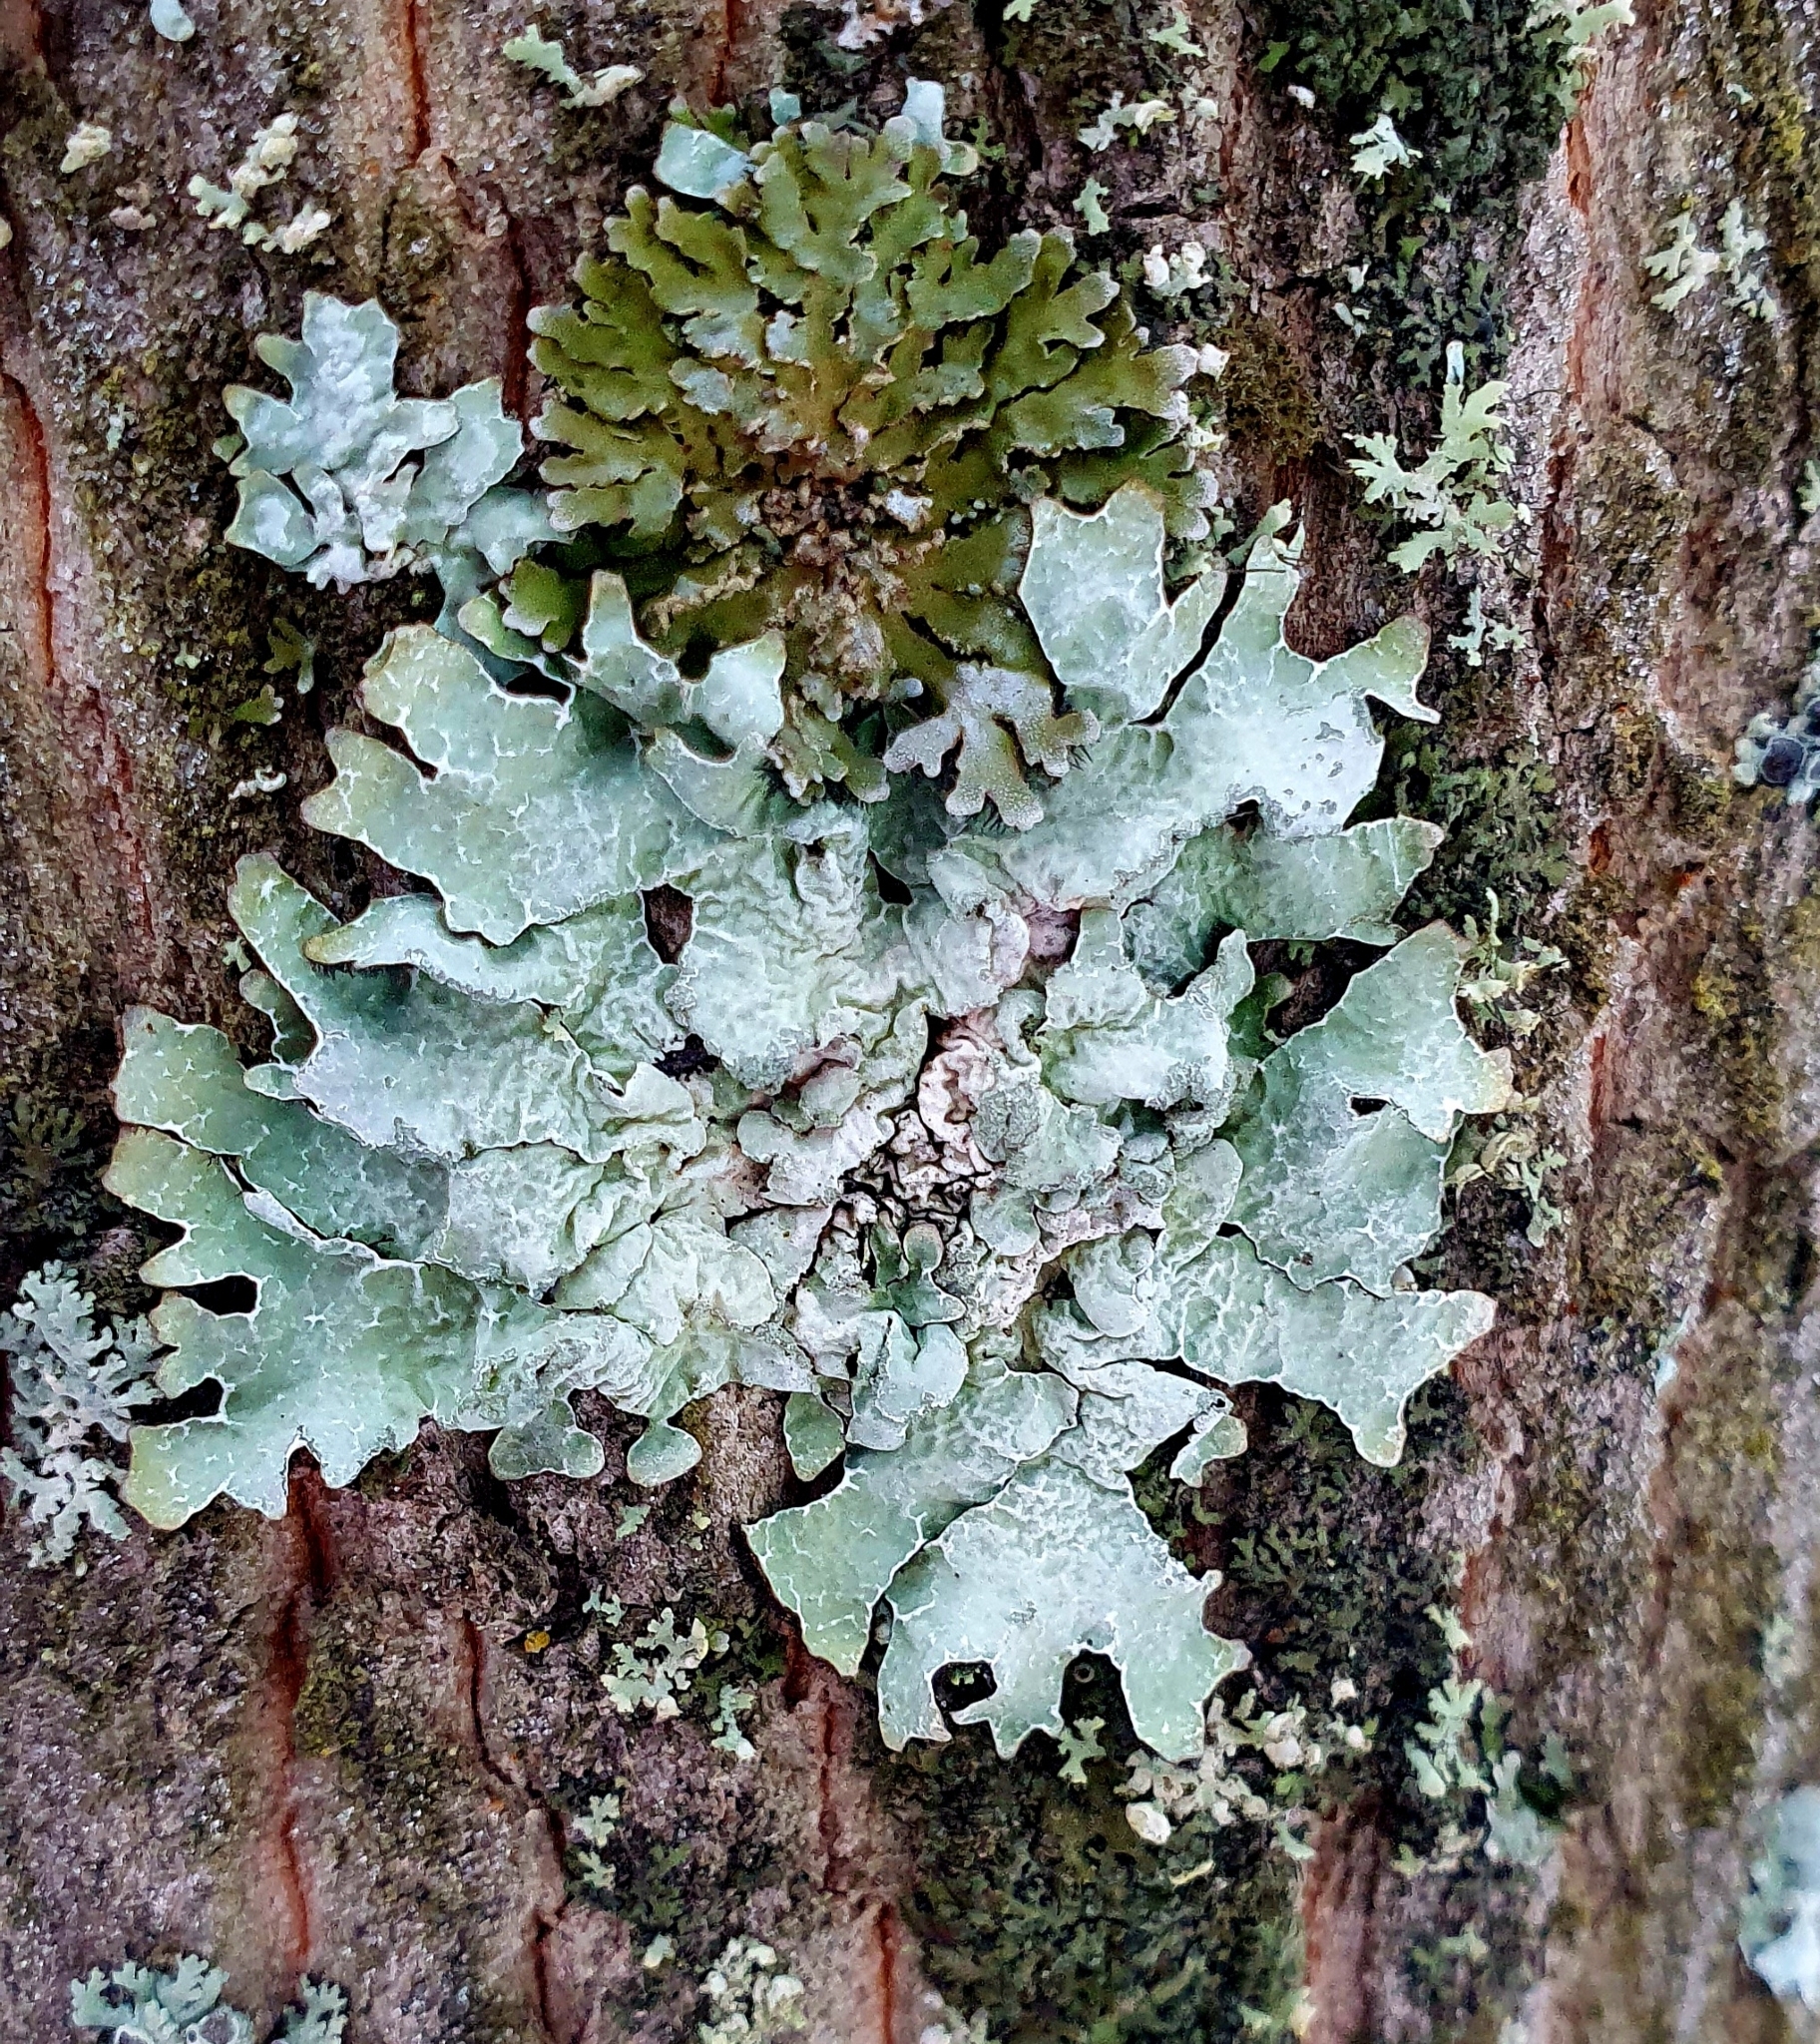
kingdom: Fungi
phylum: Ascomycota
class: Lecanoromycetes
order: Lecanorales
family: Parmeliaceae
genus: Parmelia
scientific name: Parmelia sulcata
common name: Netted shield lichen
